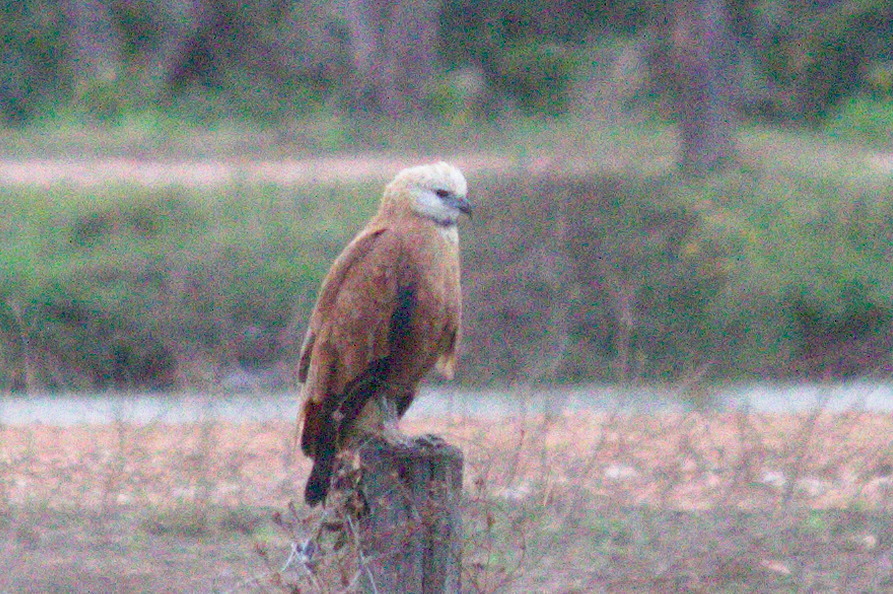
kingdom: Animalia
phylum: Chordata
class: Aves
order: Accipitriformes
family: Accipitridae
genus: Busarellus
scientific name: Busarellus nigricollis
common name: Black-collared hawk
